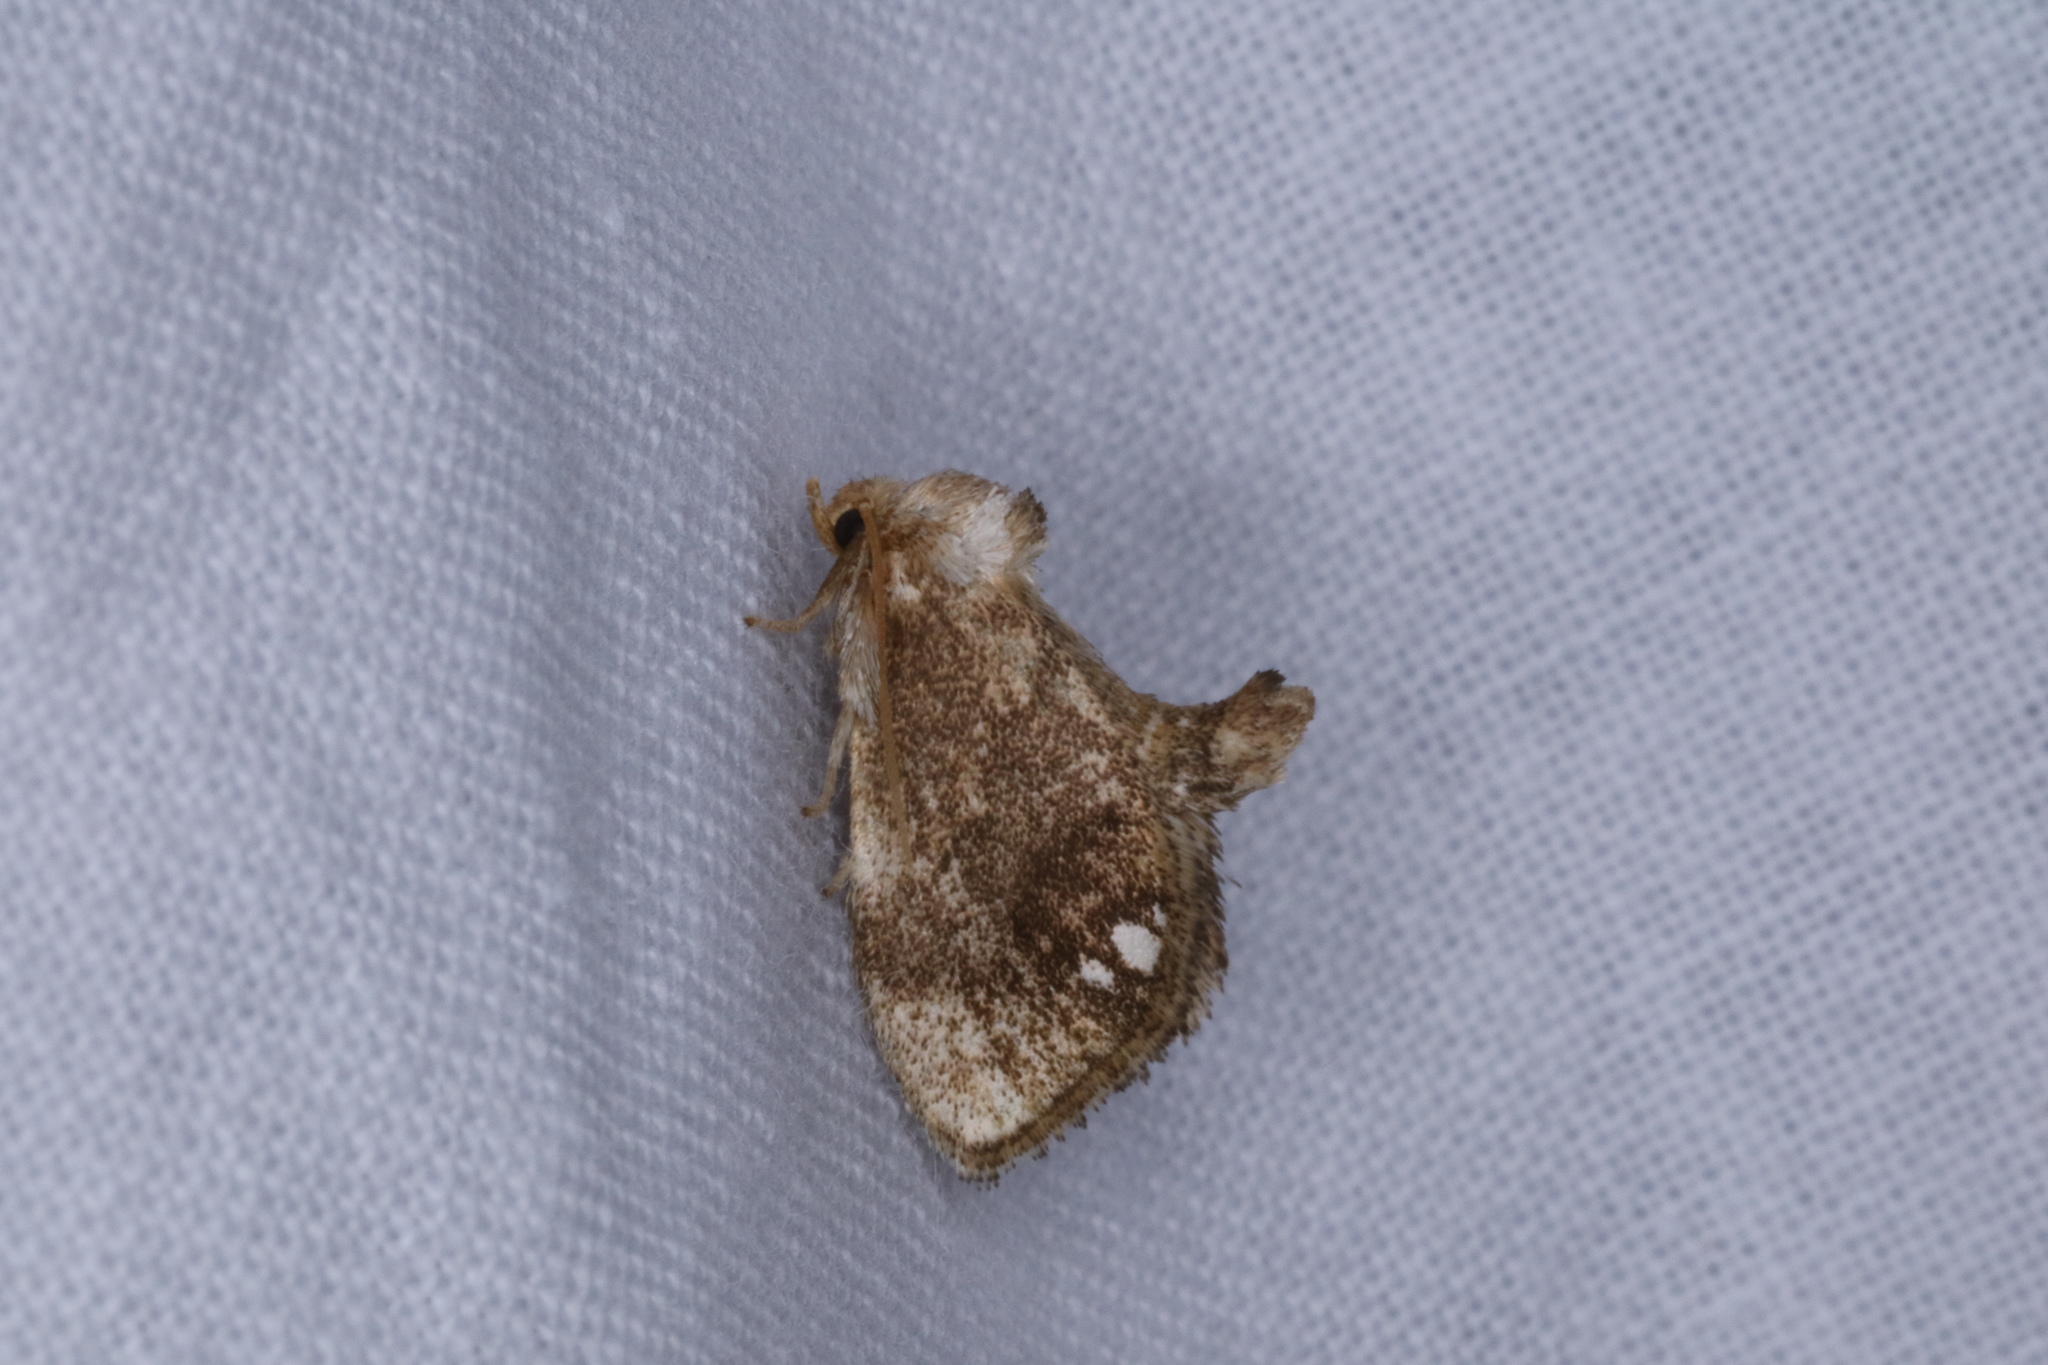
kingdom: Animalia
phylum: Arthropoda
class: Insecta
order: Lepidoptera
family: Limacodidae
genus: Packardia
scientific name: Packardia geminata
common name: Jeweled tailed slug moth
